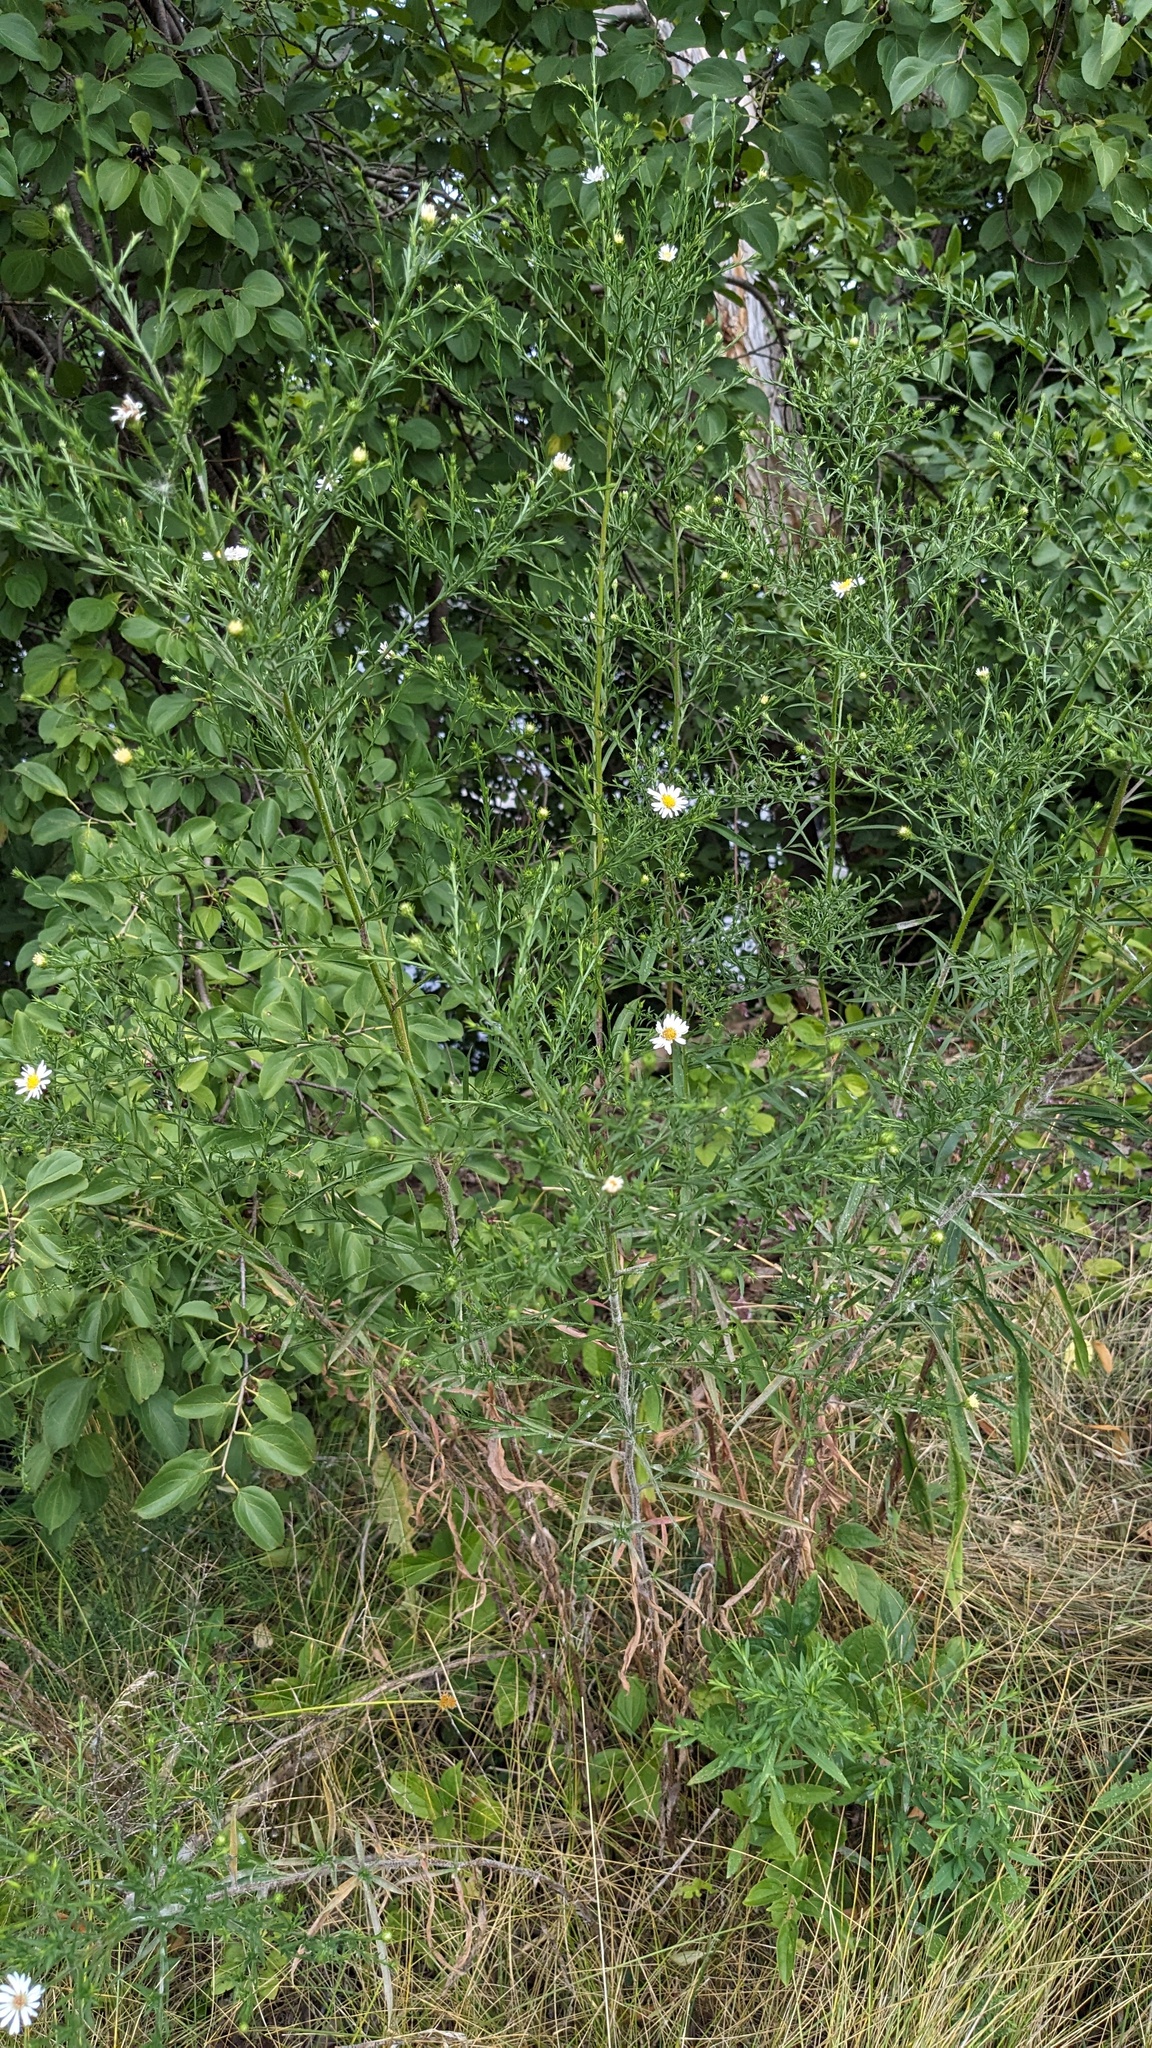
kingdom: Plantae
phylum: Tracheophyta
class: Magnoliopsida
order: Asterales
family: Asteraceae
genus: Symphyotrichum
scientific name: Symphyotrichum pilosum
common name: Awl aster
